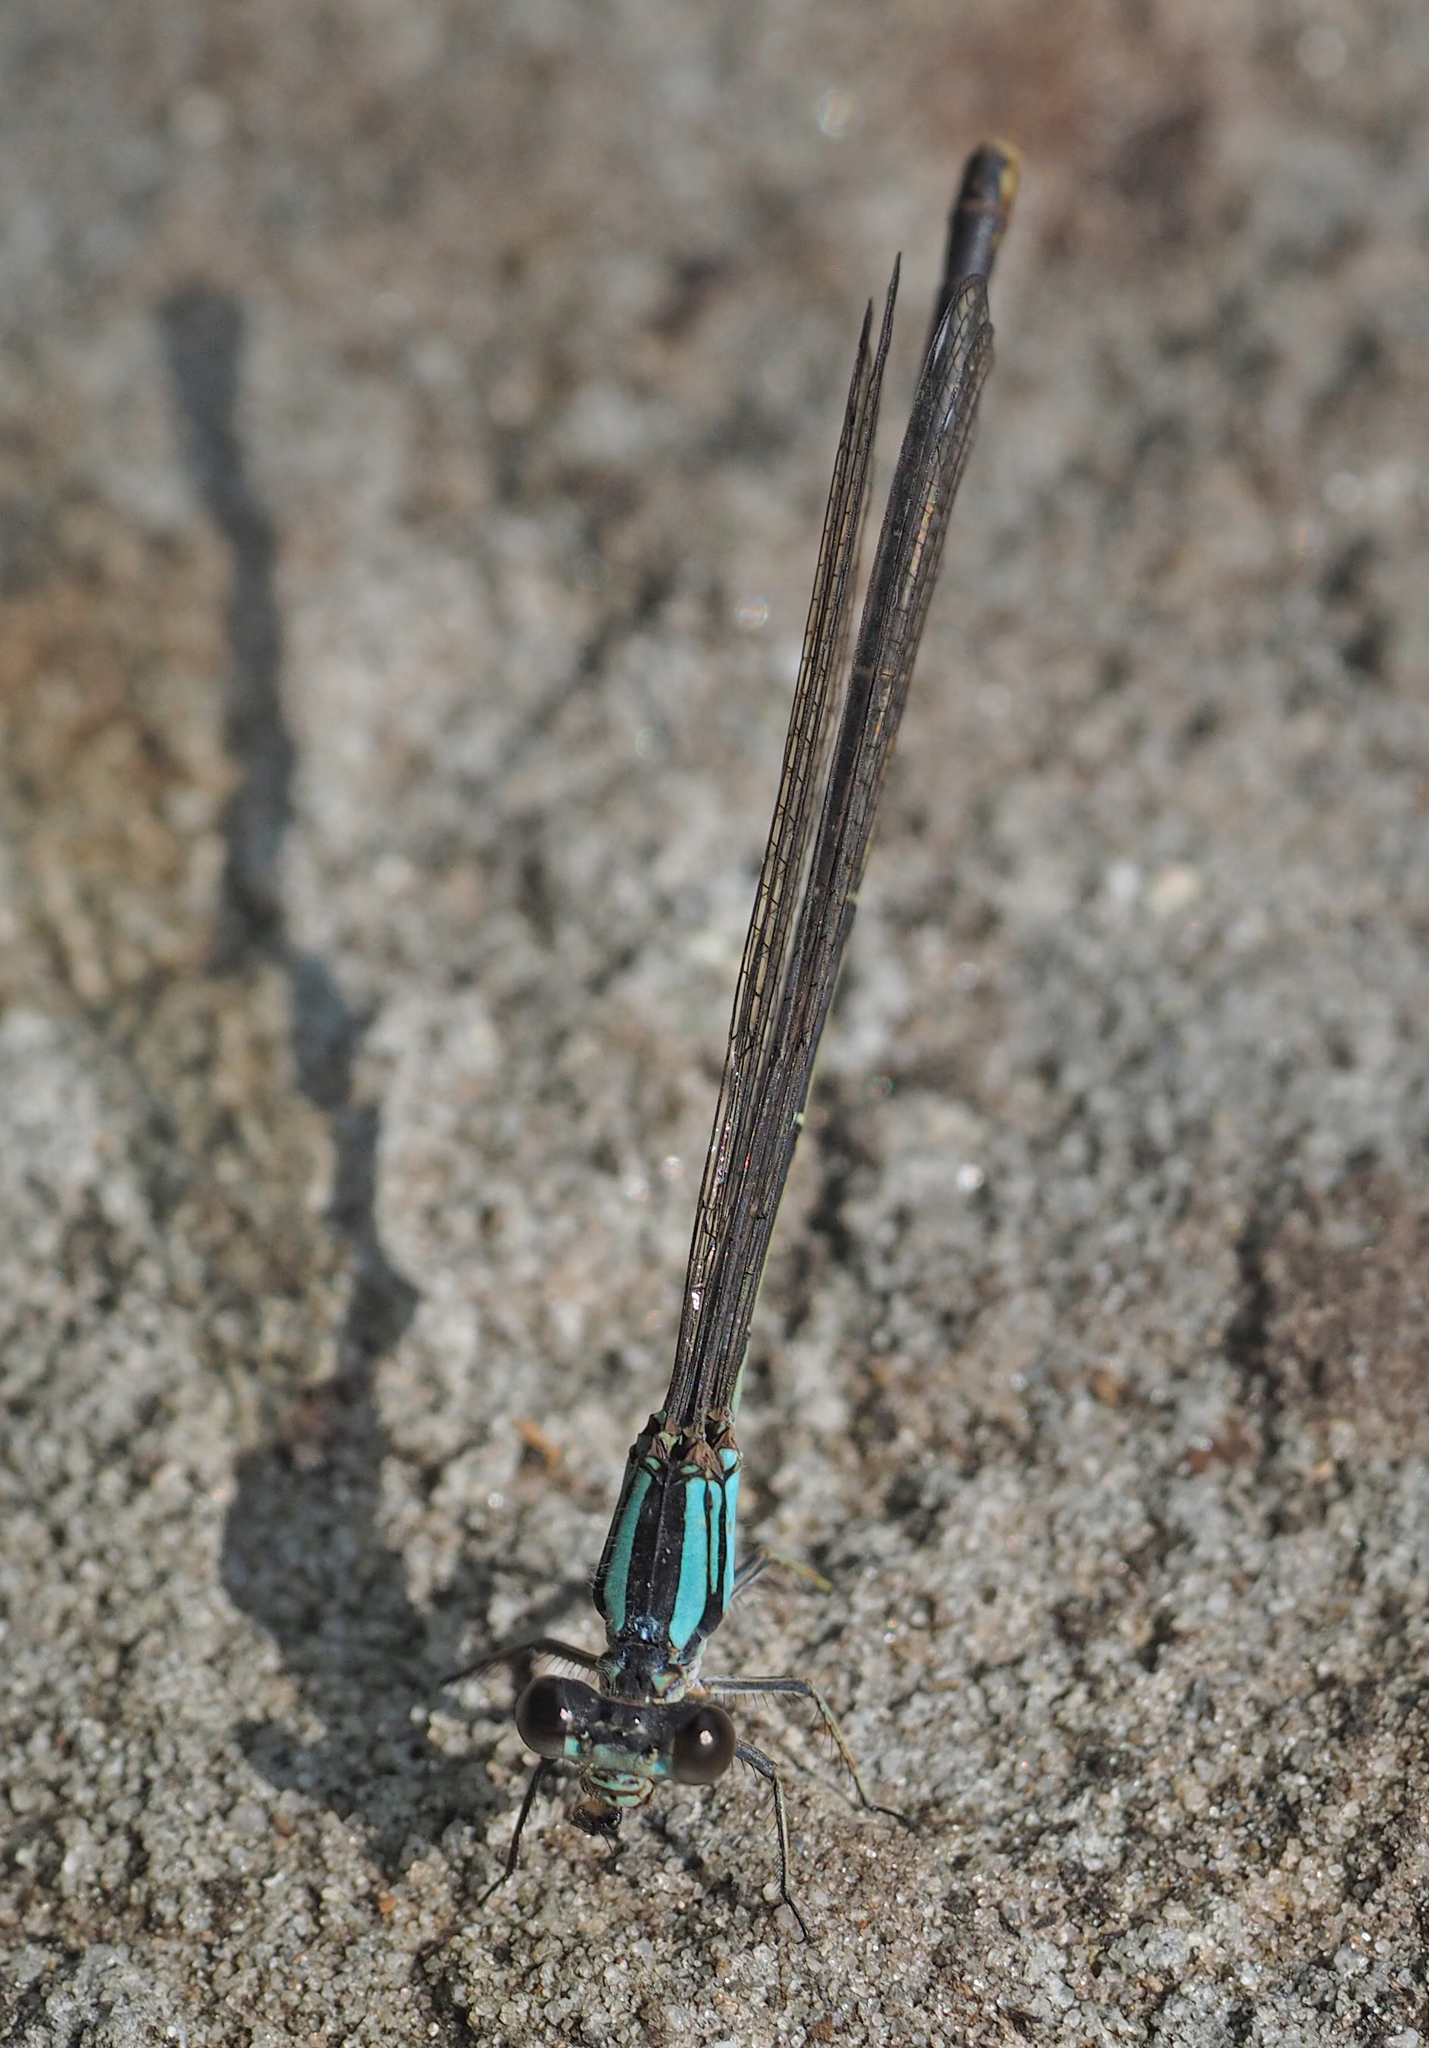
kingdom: Animalia
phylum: Arthropoda
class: Insecta
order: Odonata
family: Coenagrionidae
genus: Argia
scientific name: Argia moesta
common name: Powdered dancer
